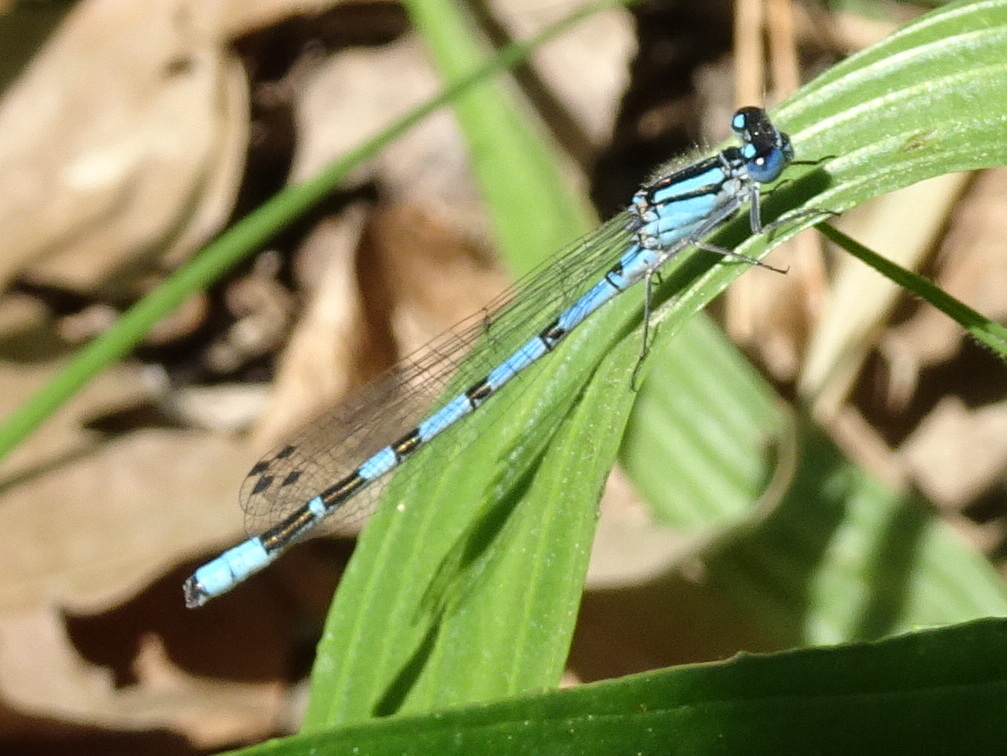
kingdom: Animalia
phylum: Arthropoda
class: Insecta
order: Odonata
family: Coenagrionidae
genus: Enallagma
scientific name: Enallagma cyathigerum
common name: Common blue damselfly
